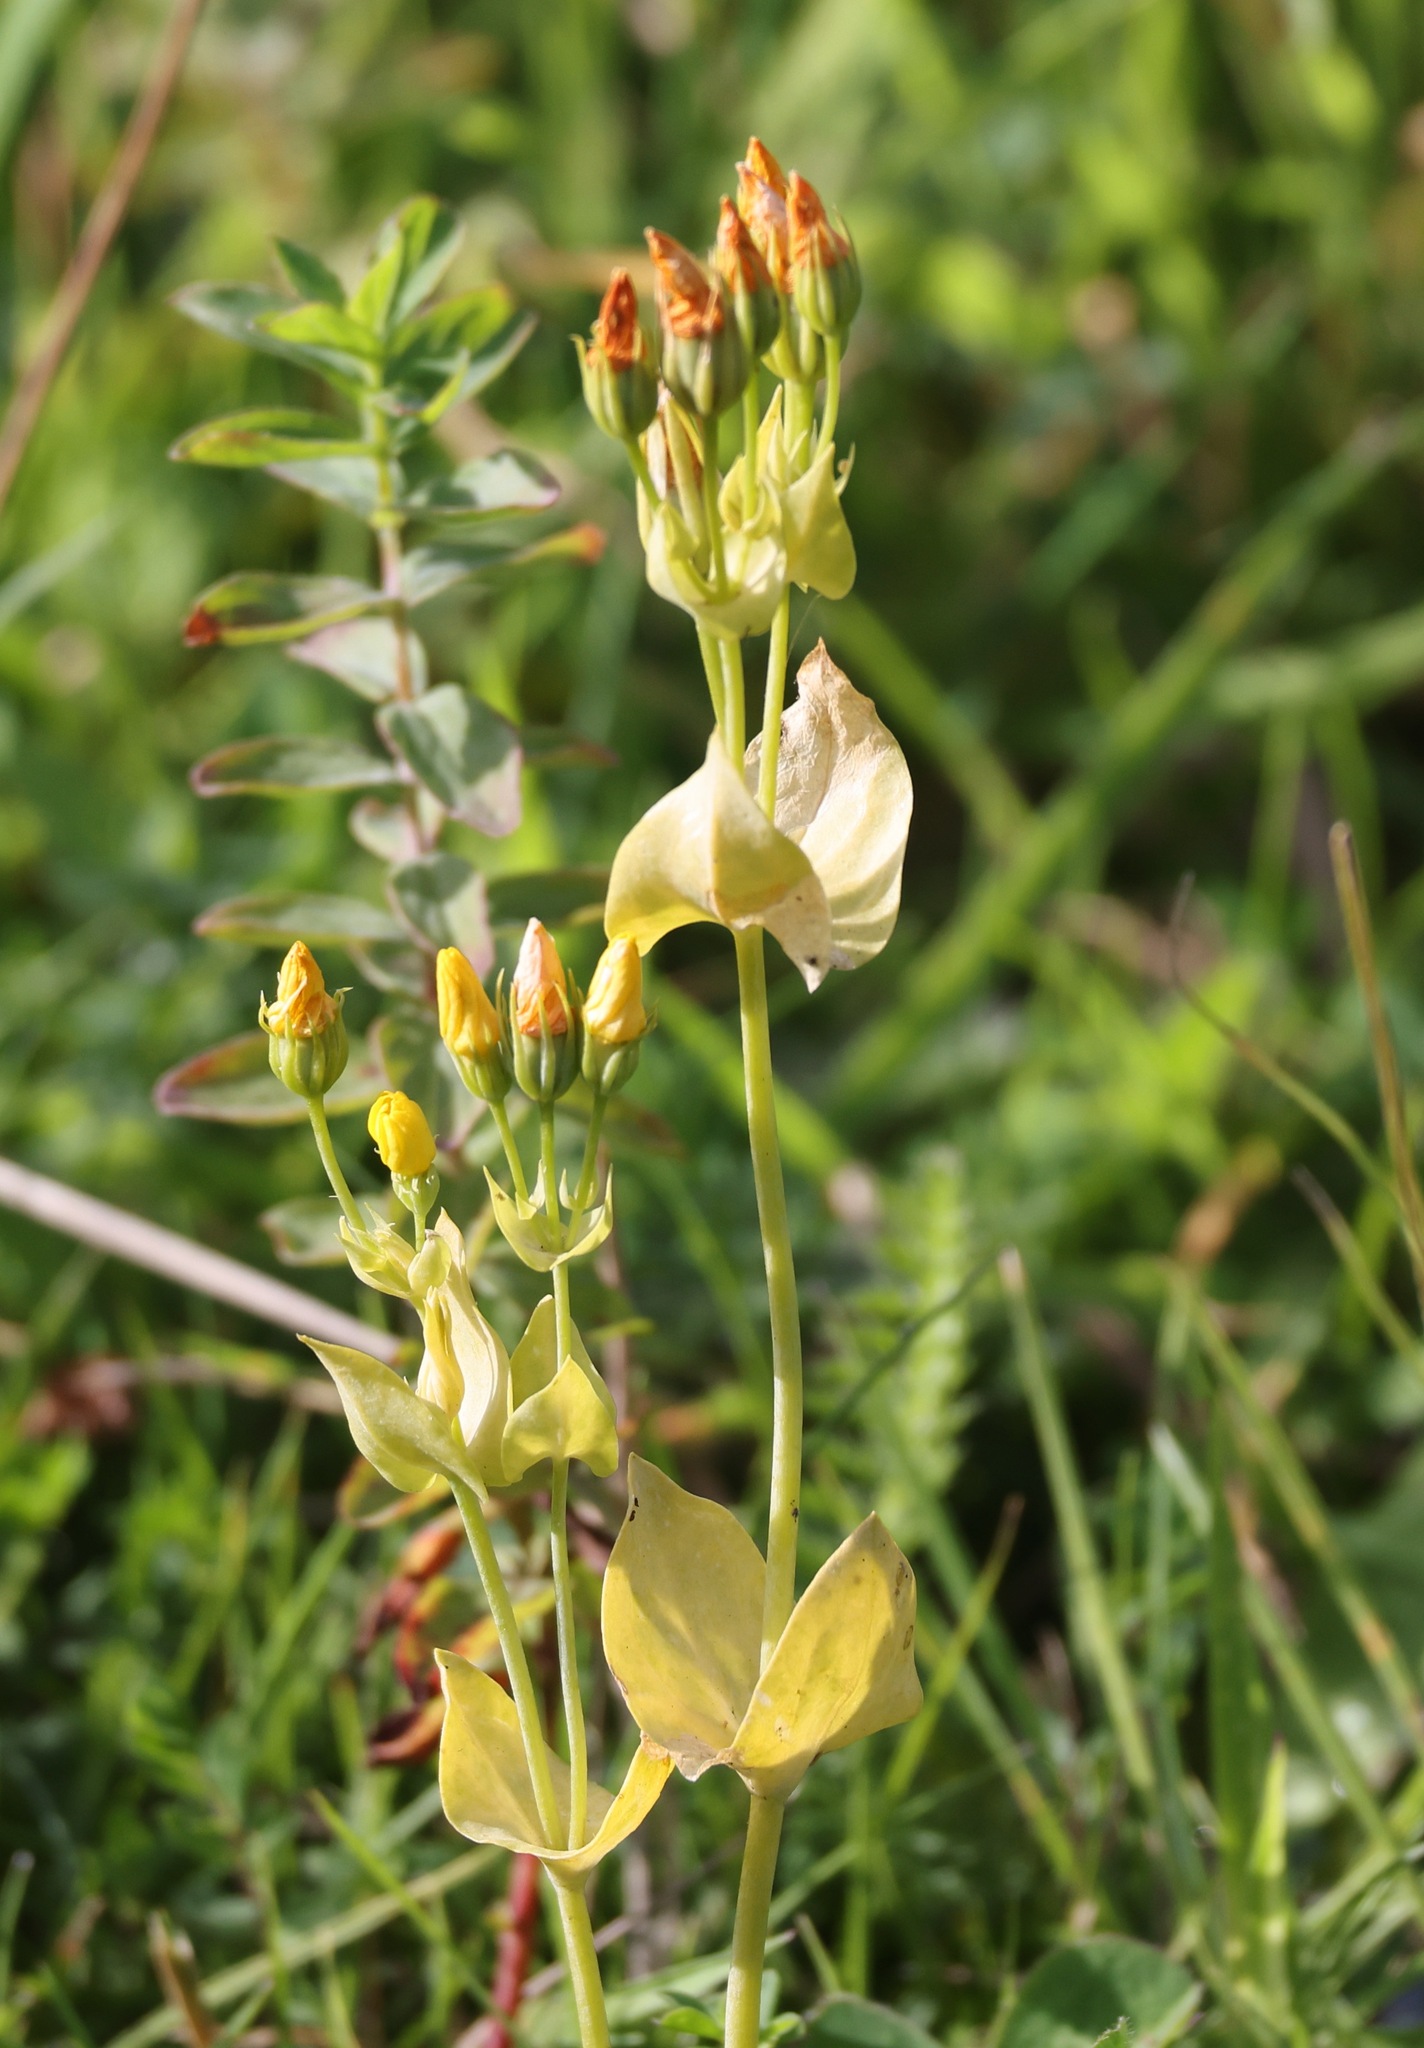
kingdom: Plantae
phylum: Tracheophyta
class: Magnoliopsida
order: Gentianales
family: Gentianaceae
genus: Blackstonia
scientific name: Blackstonia perfoliata
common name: Yellow-wort
